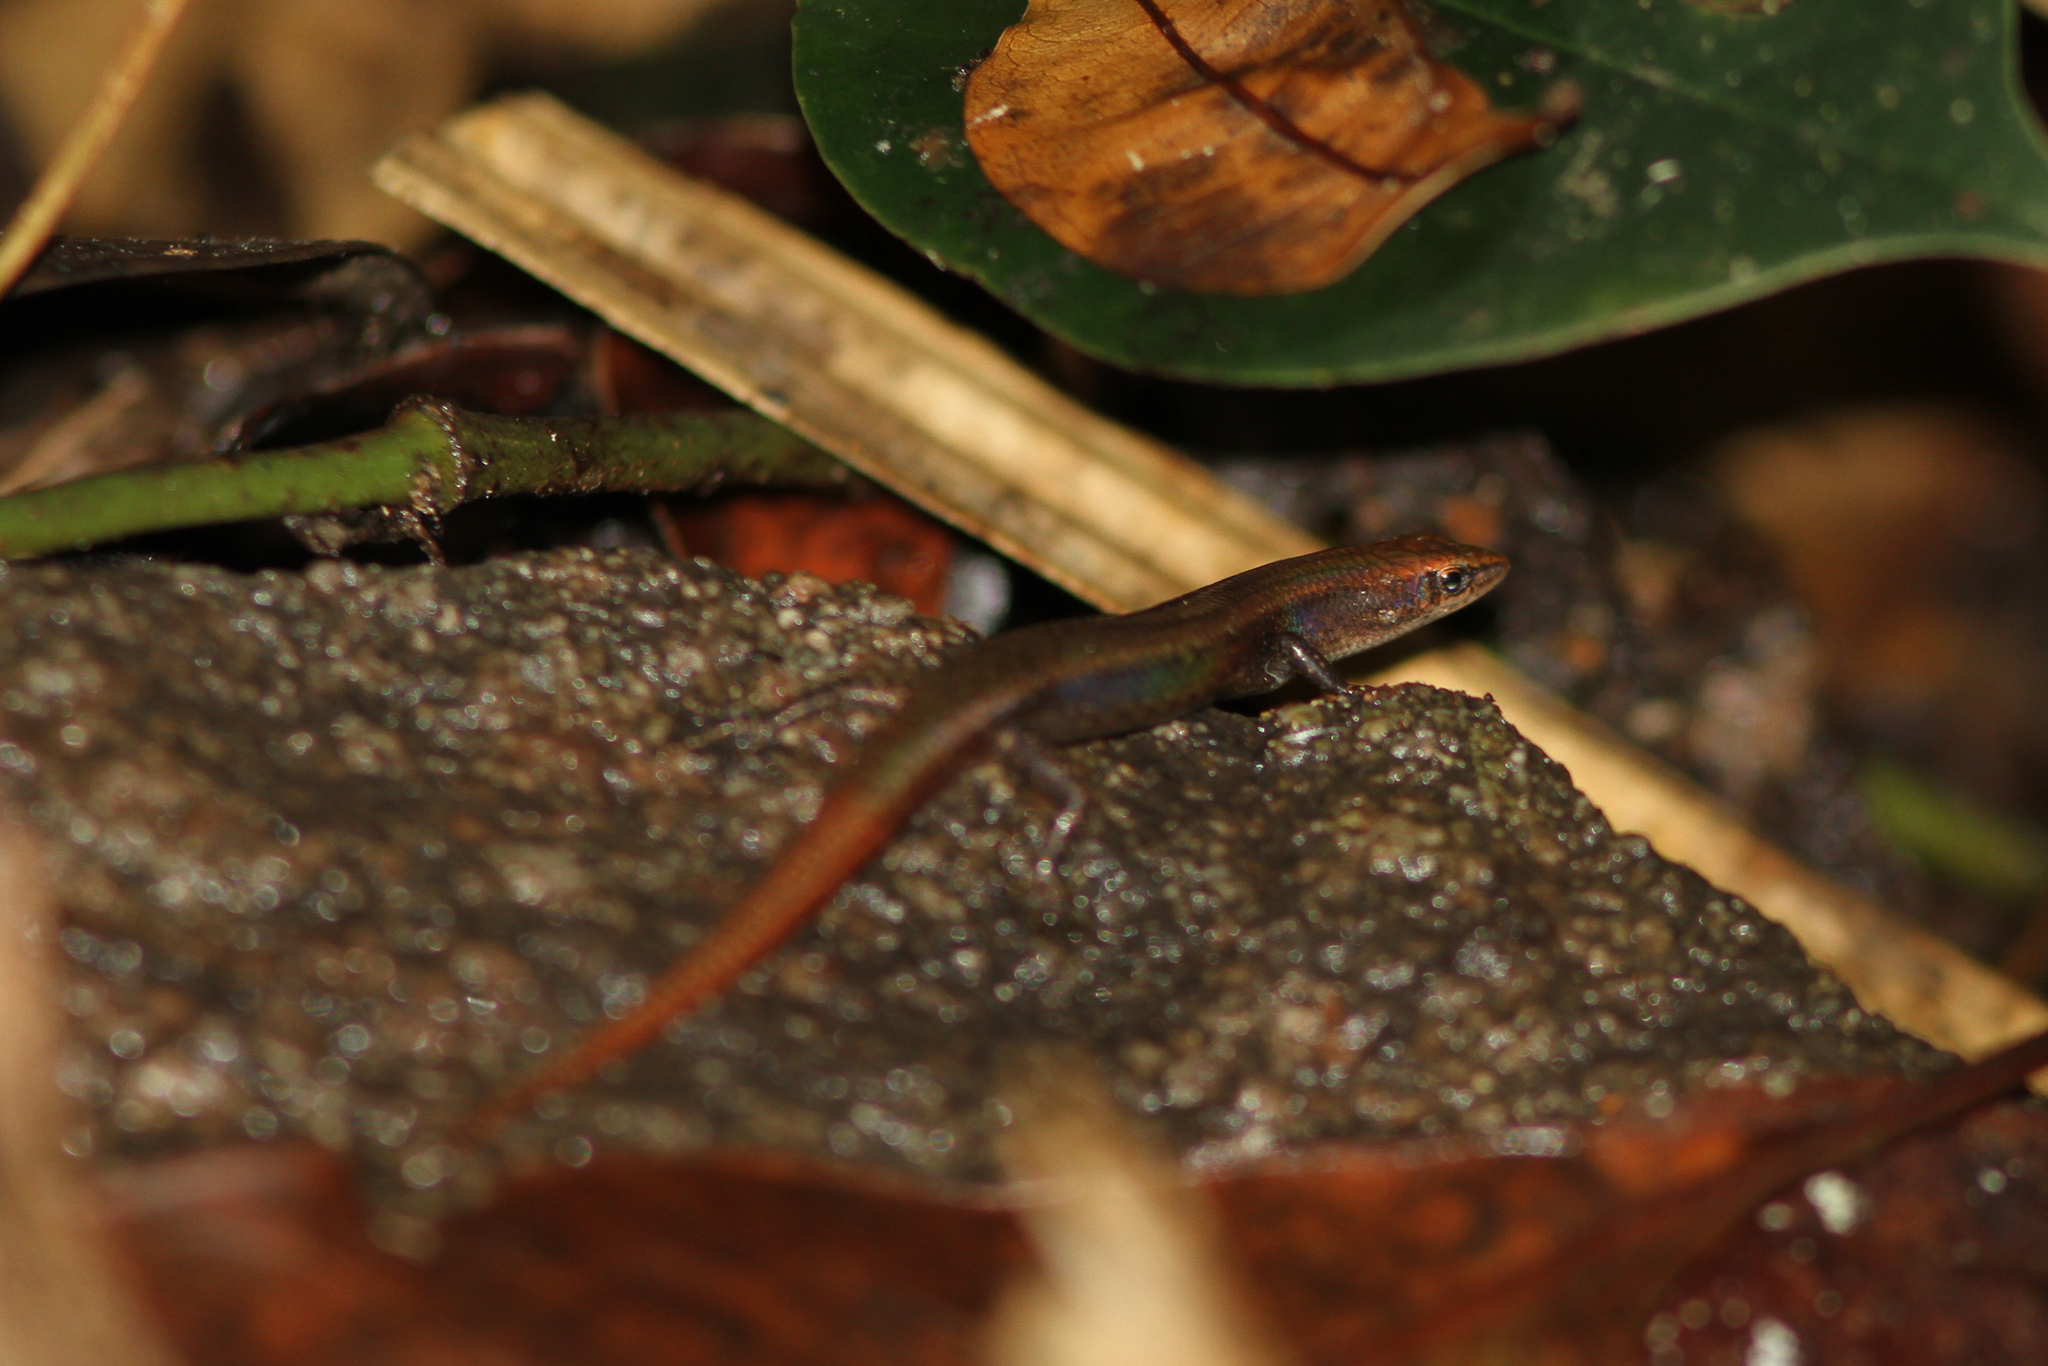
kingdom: Animalia
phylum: Chordata
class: Squamata
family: Scincidae
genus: Lygisaurus
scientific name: Lygisaurus laevis
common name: Rainforest edge litter-skink
